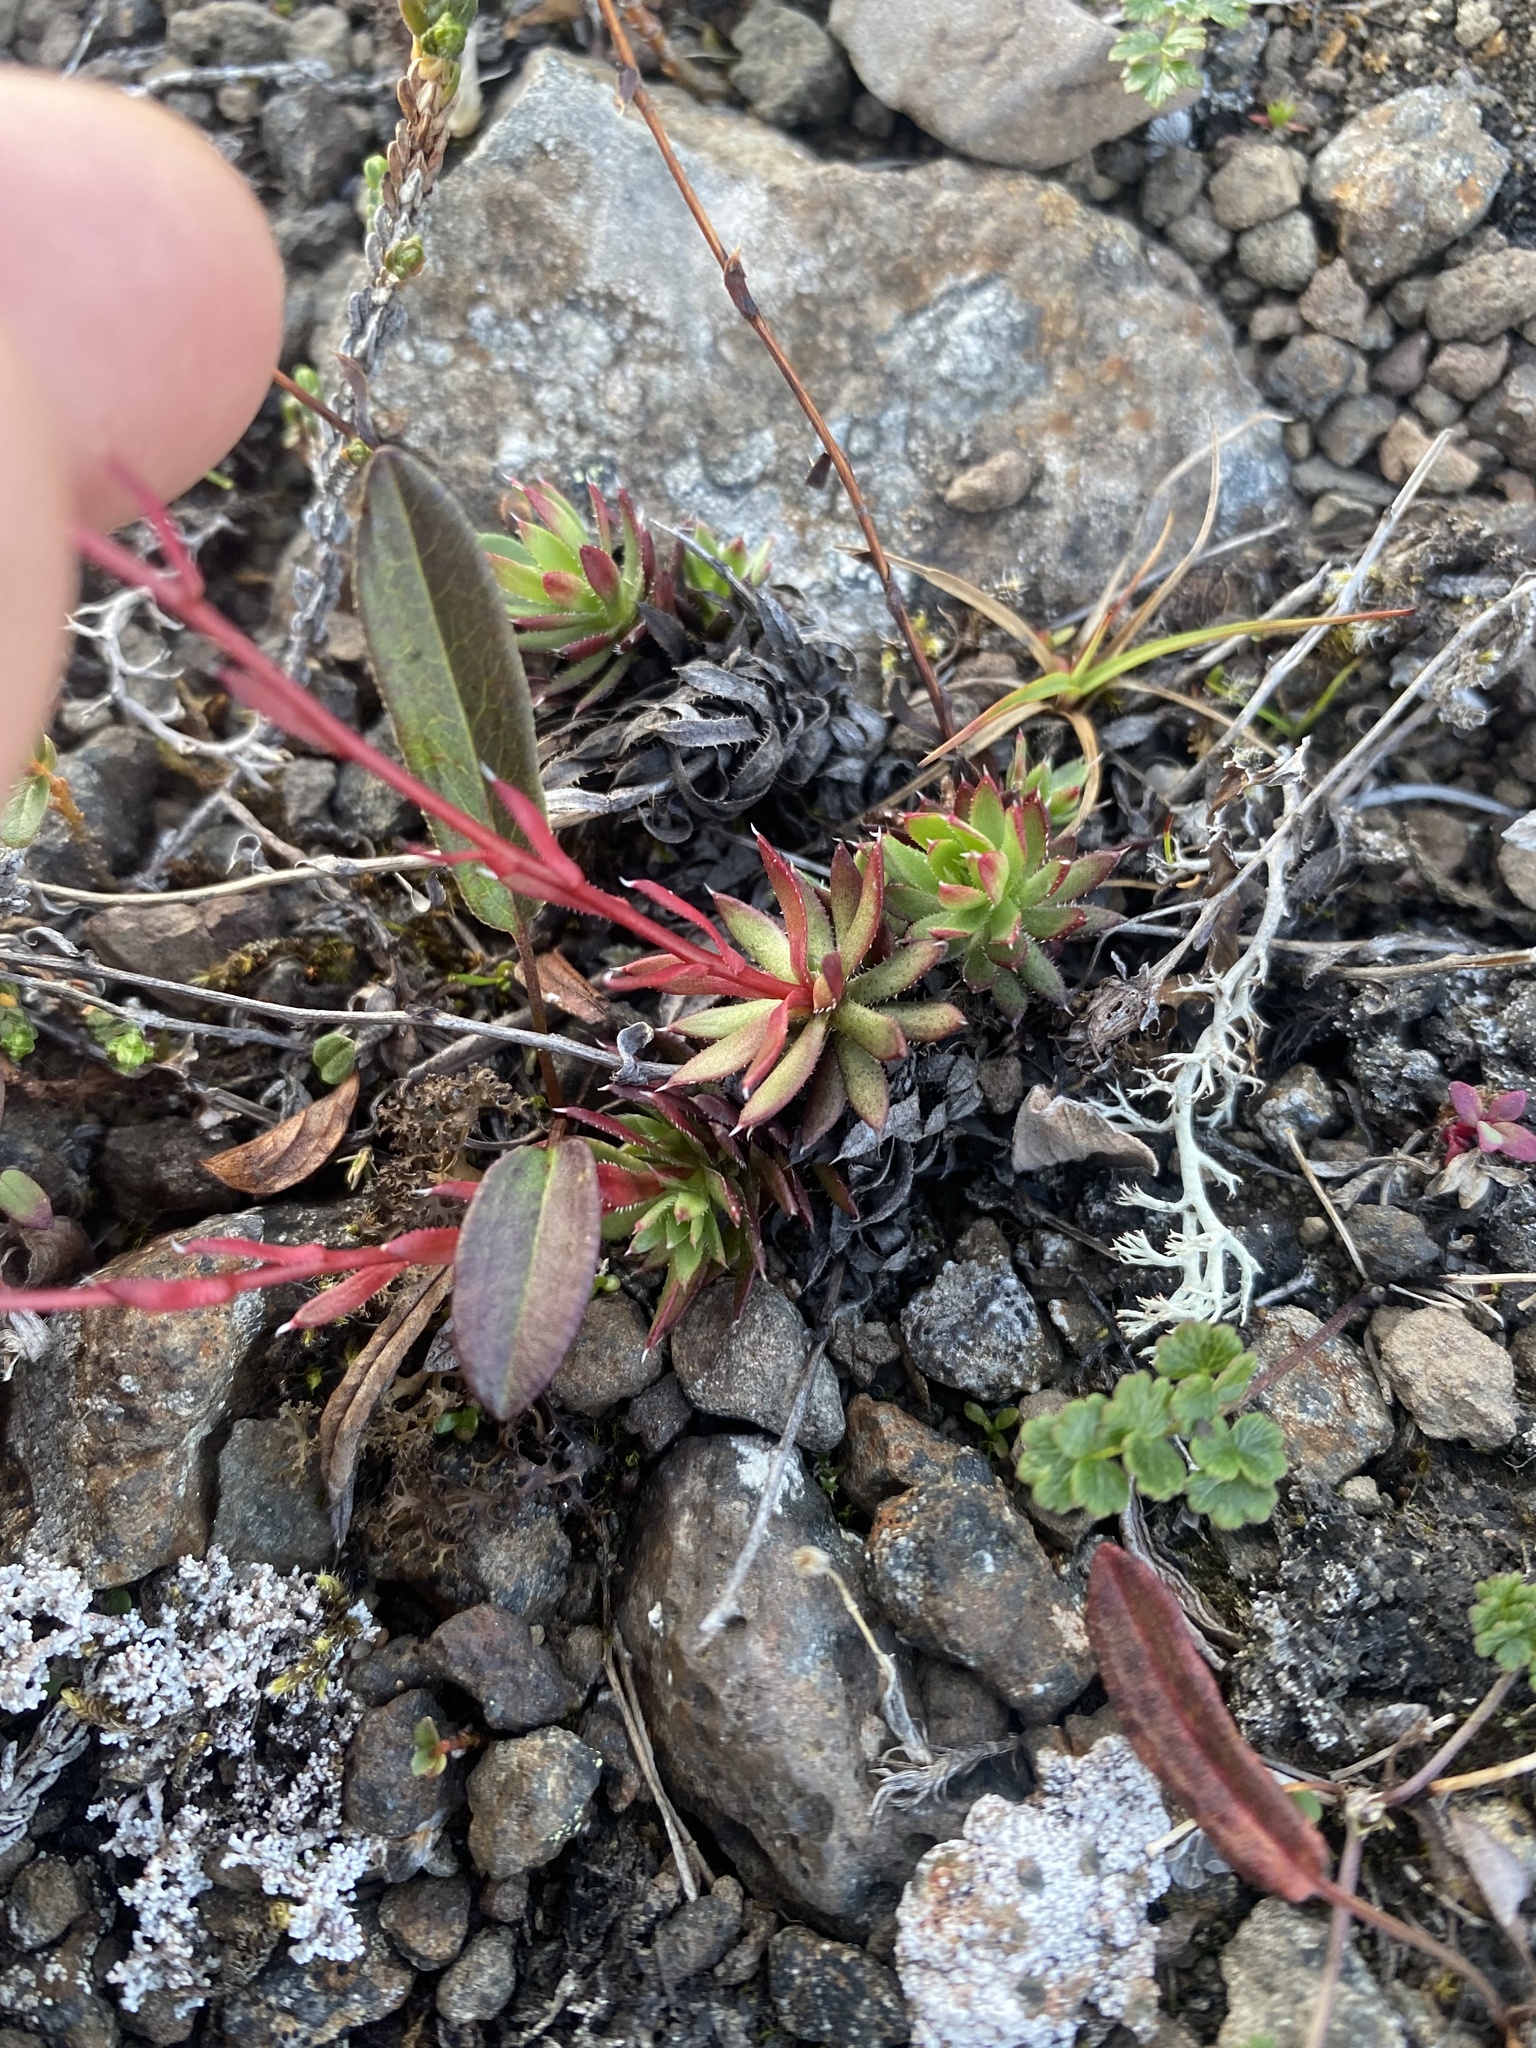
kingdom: Plantae
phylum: Tracheophyta
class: Magnoliopsida
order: Saxifragales
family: Saxifragaceae
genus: Saxifraga
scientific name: Saxifraga
